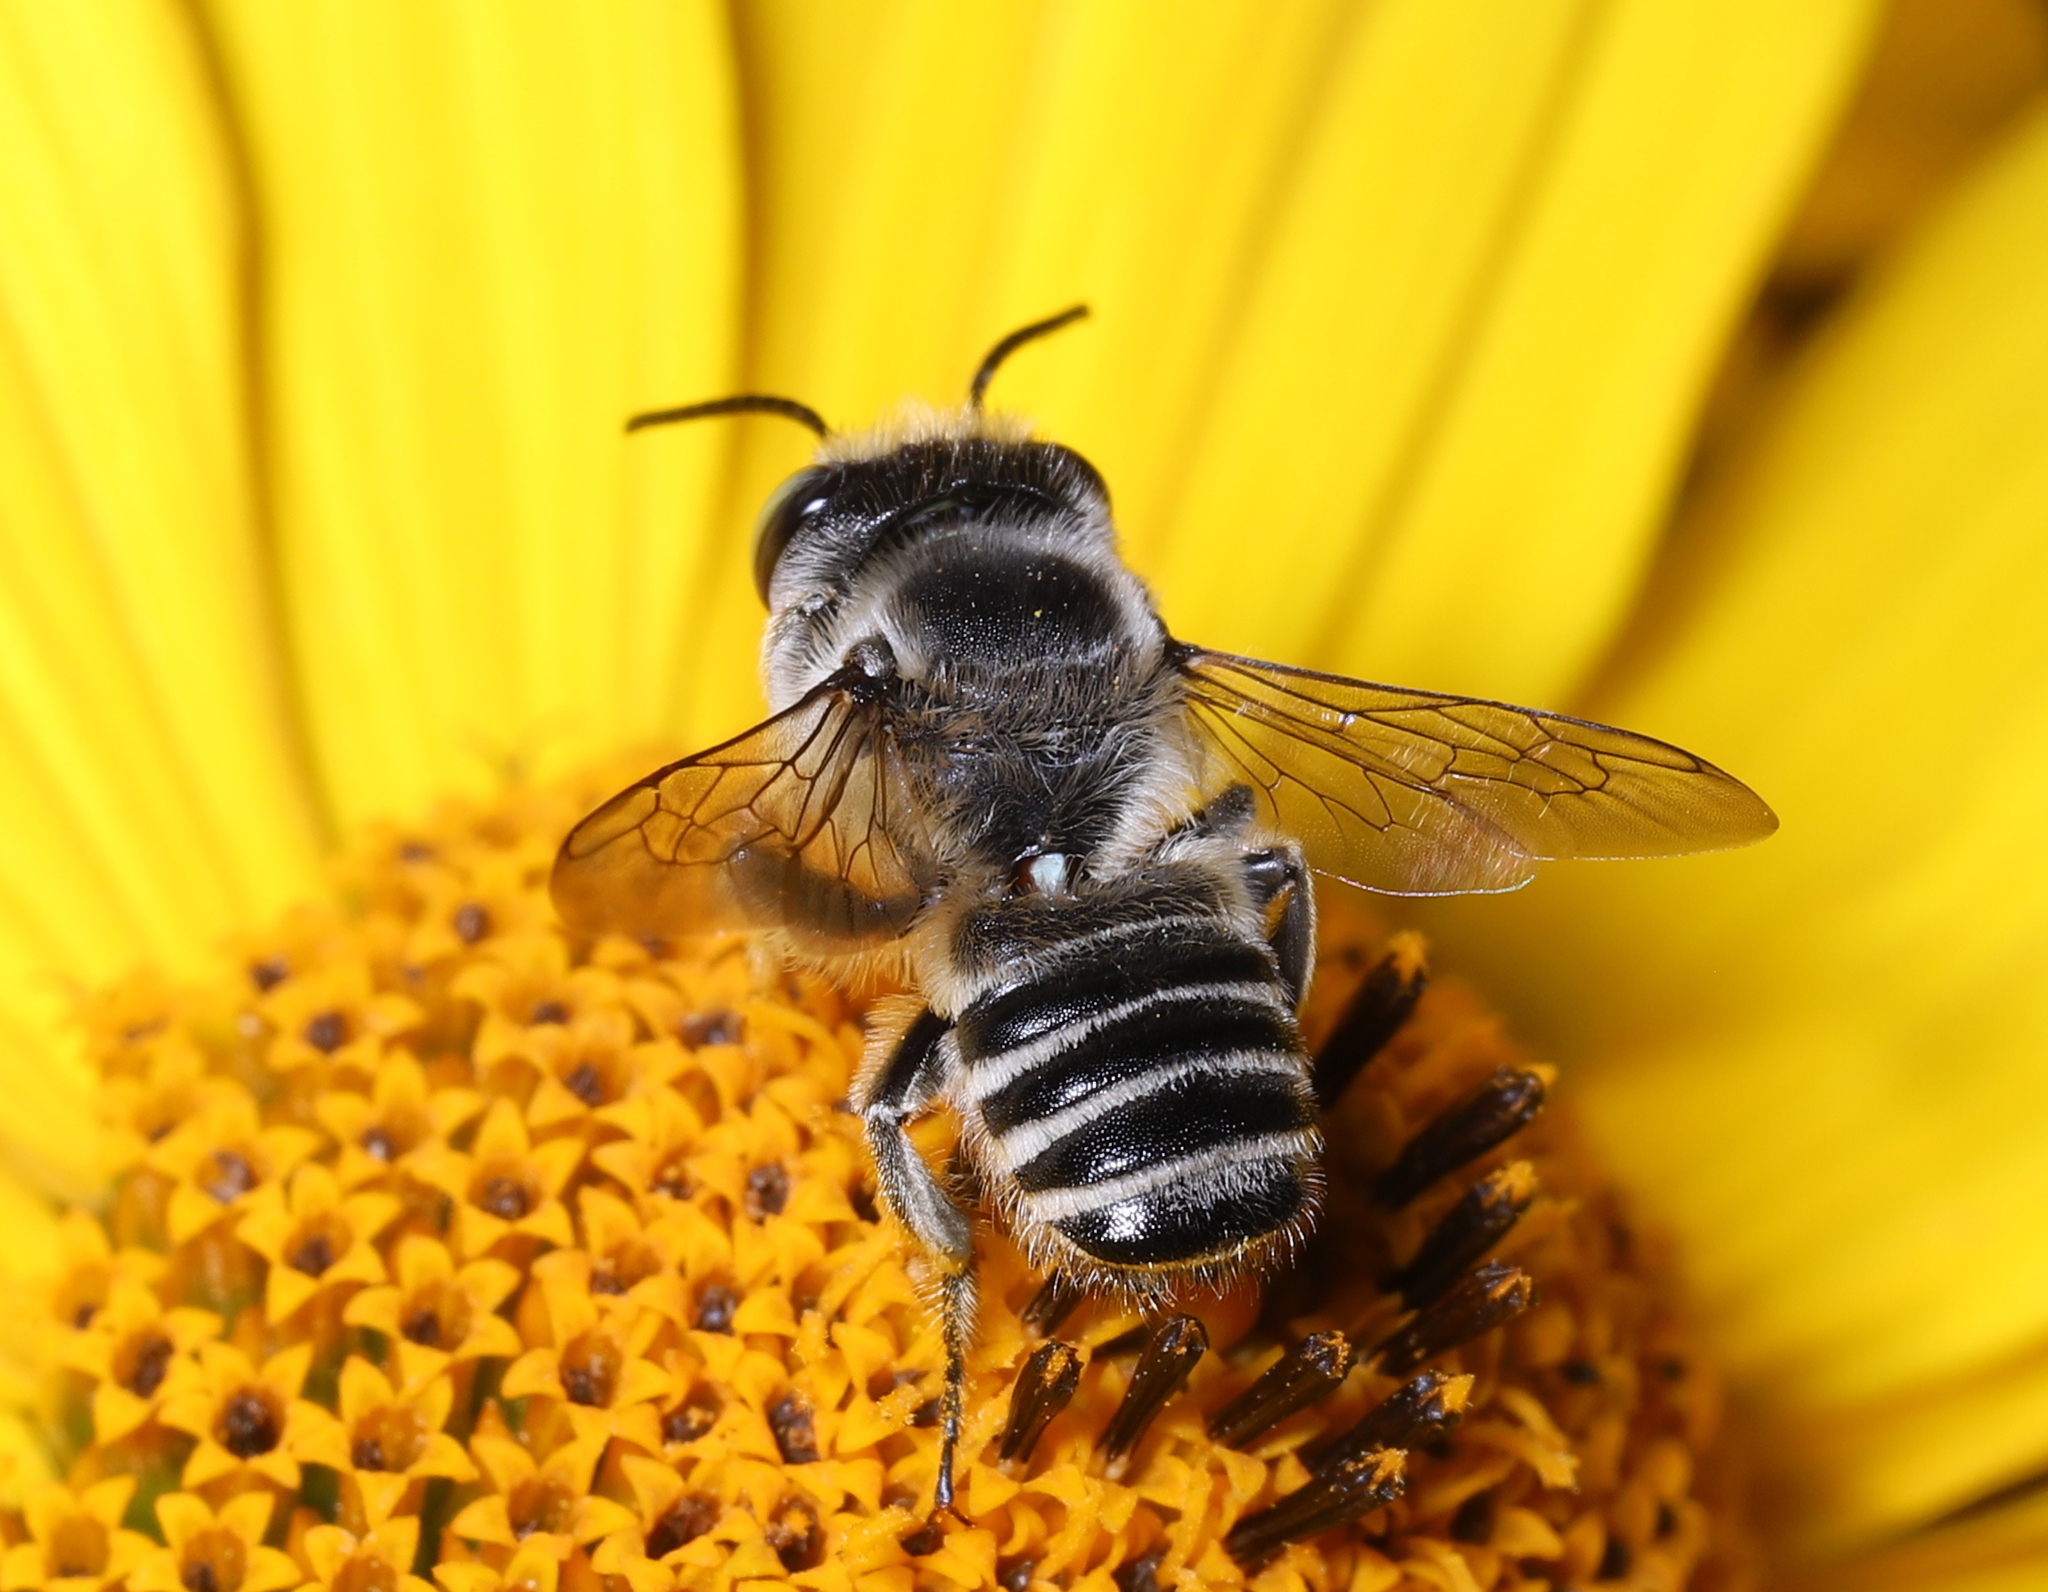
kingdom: Animalia
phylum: Arthropoda
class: Insecta
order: Hymenoptera
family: Megachilidae
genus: Megachile
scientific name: Megachile
